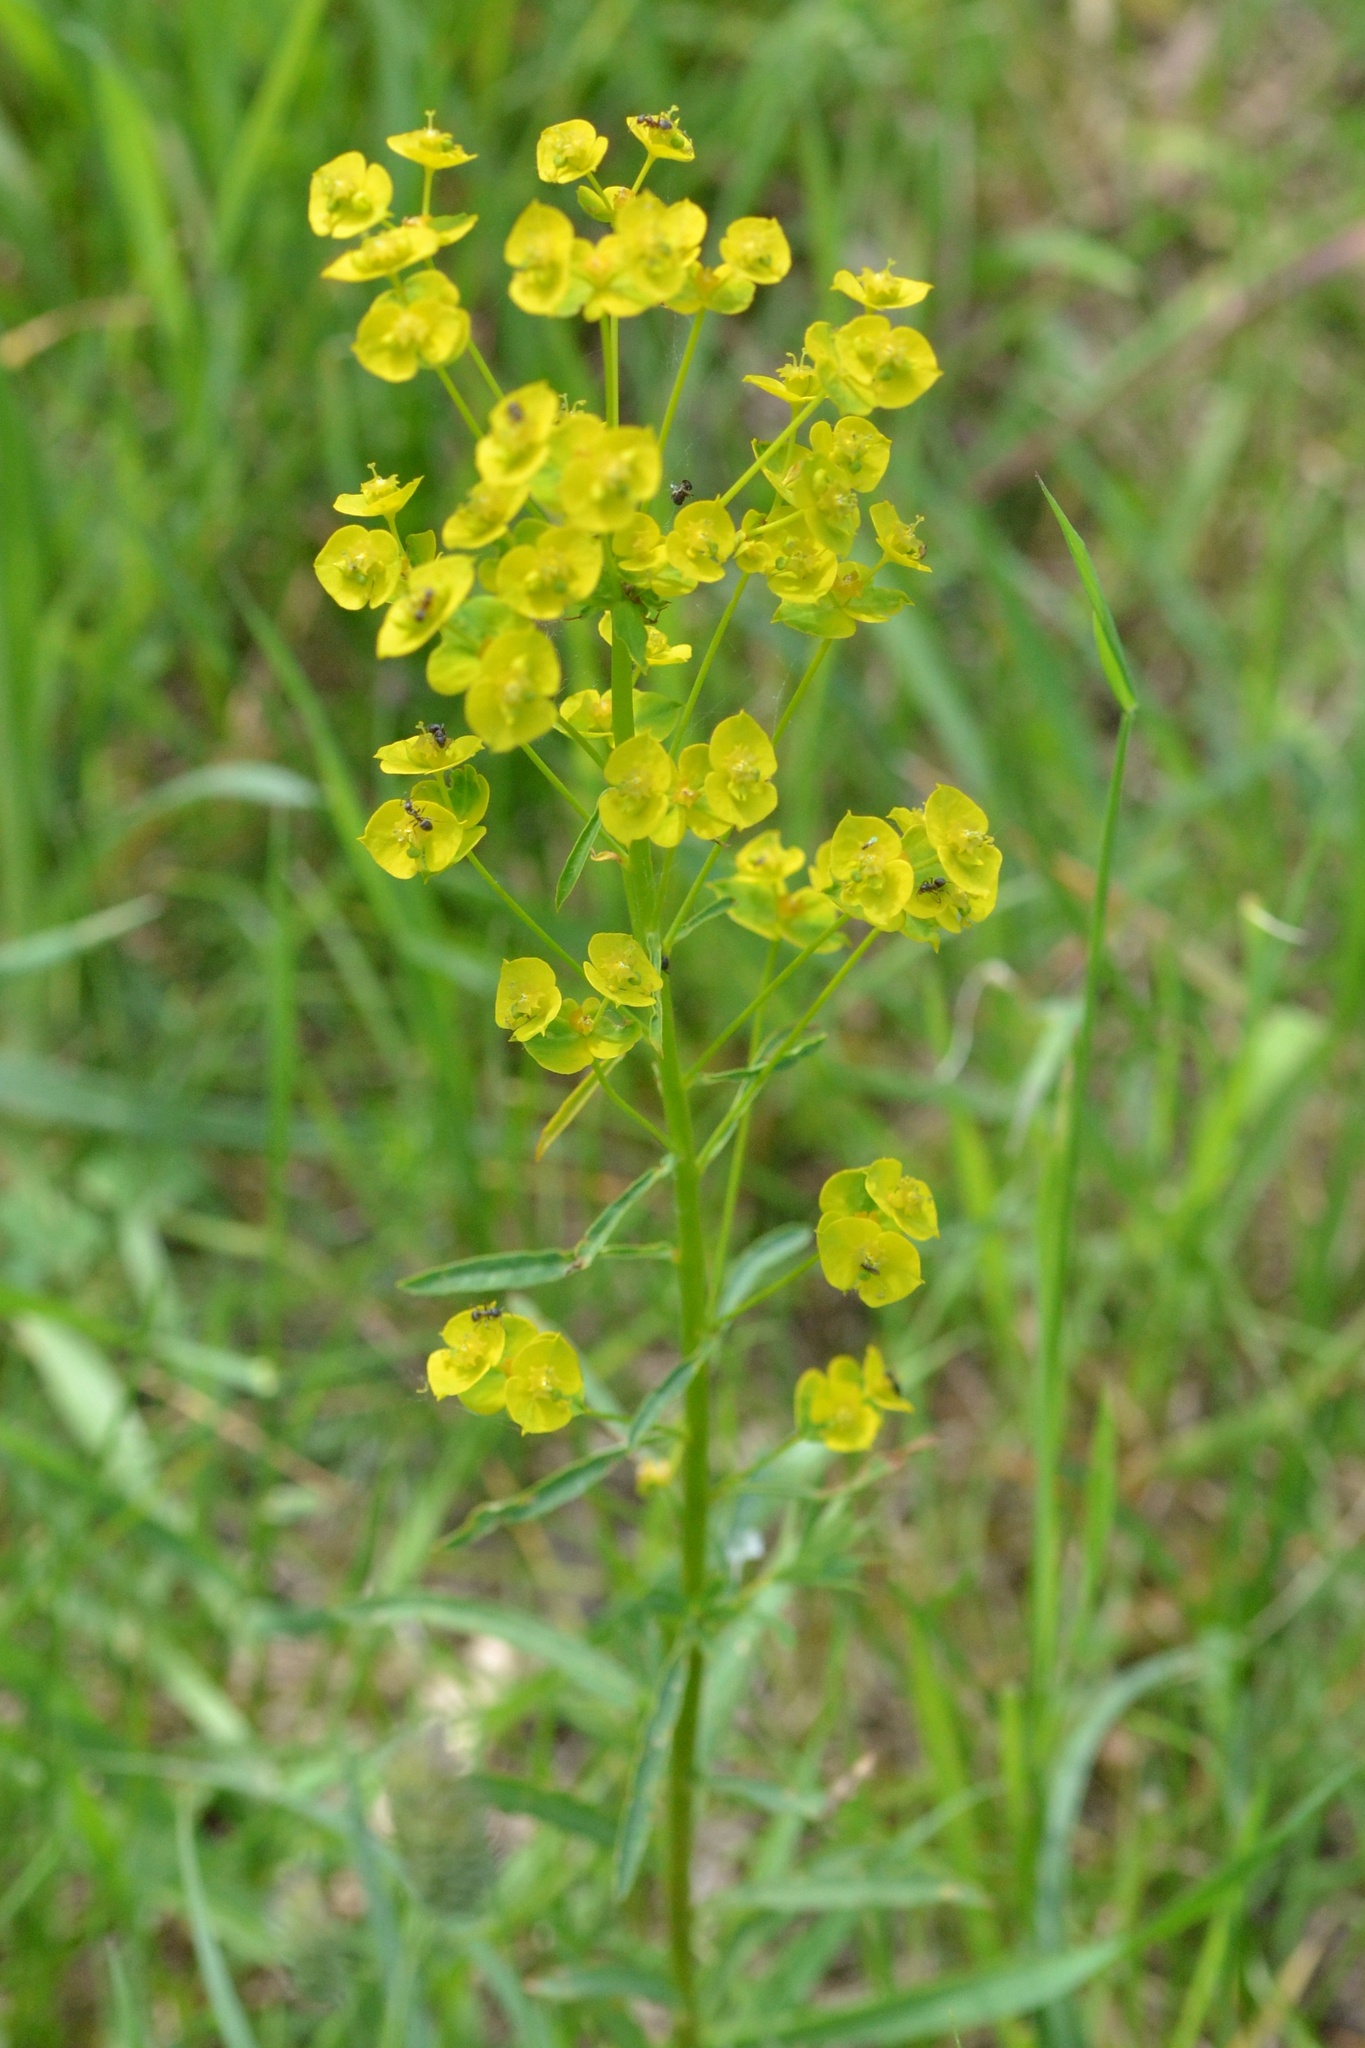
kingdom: Plantae
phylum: Tracheophyta
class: Magnoliopsida
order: Malpighiales
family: Euphorbiaceae
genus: Euphorbia
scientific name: Euphorbia esula
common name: Leafy spurge
